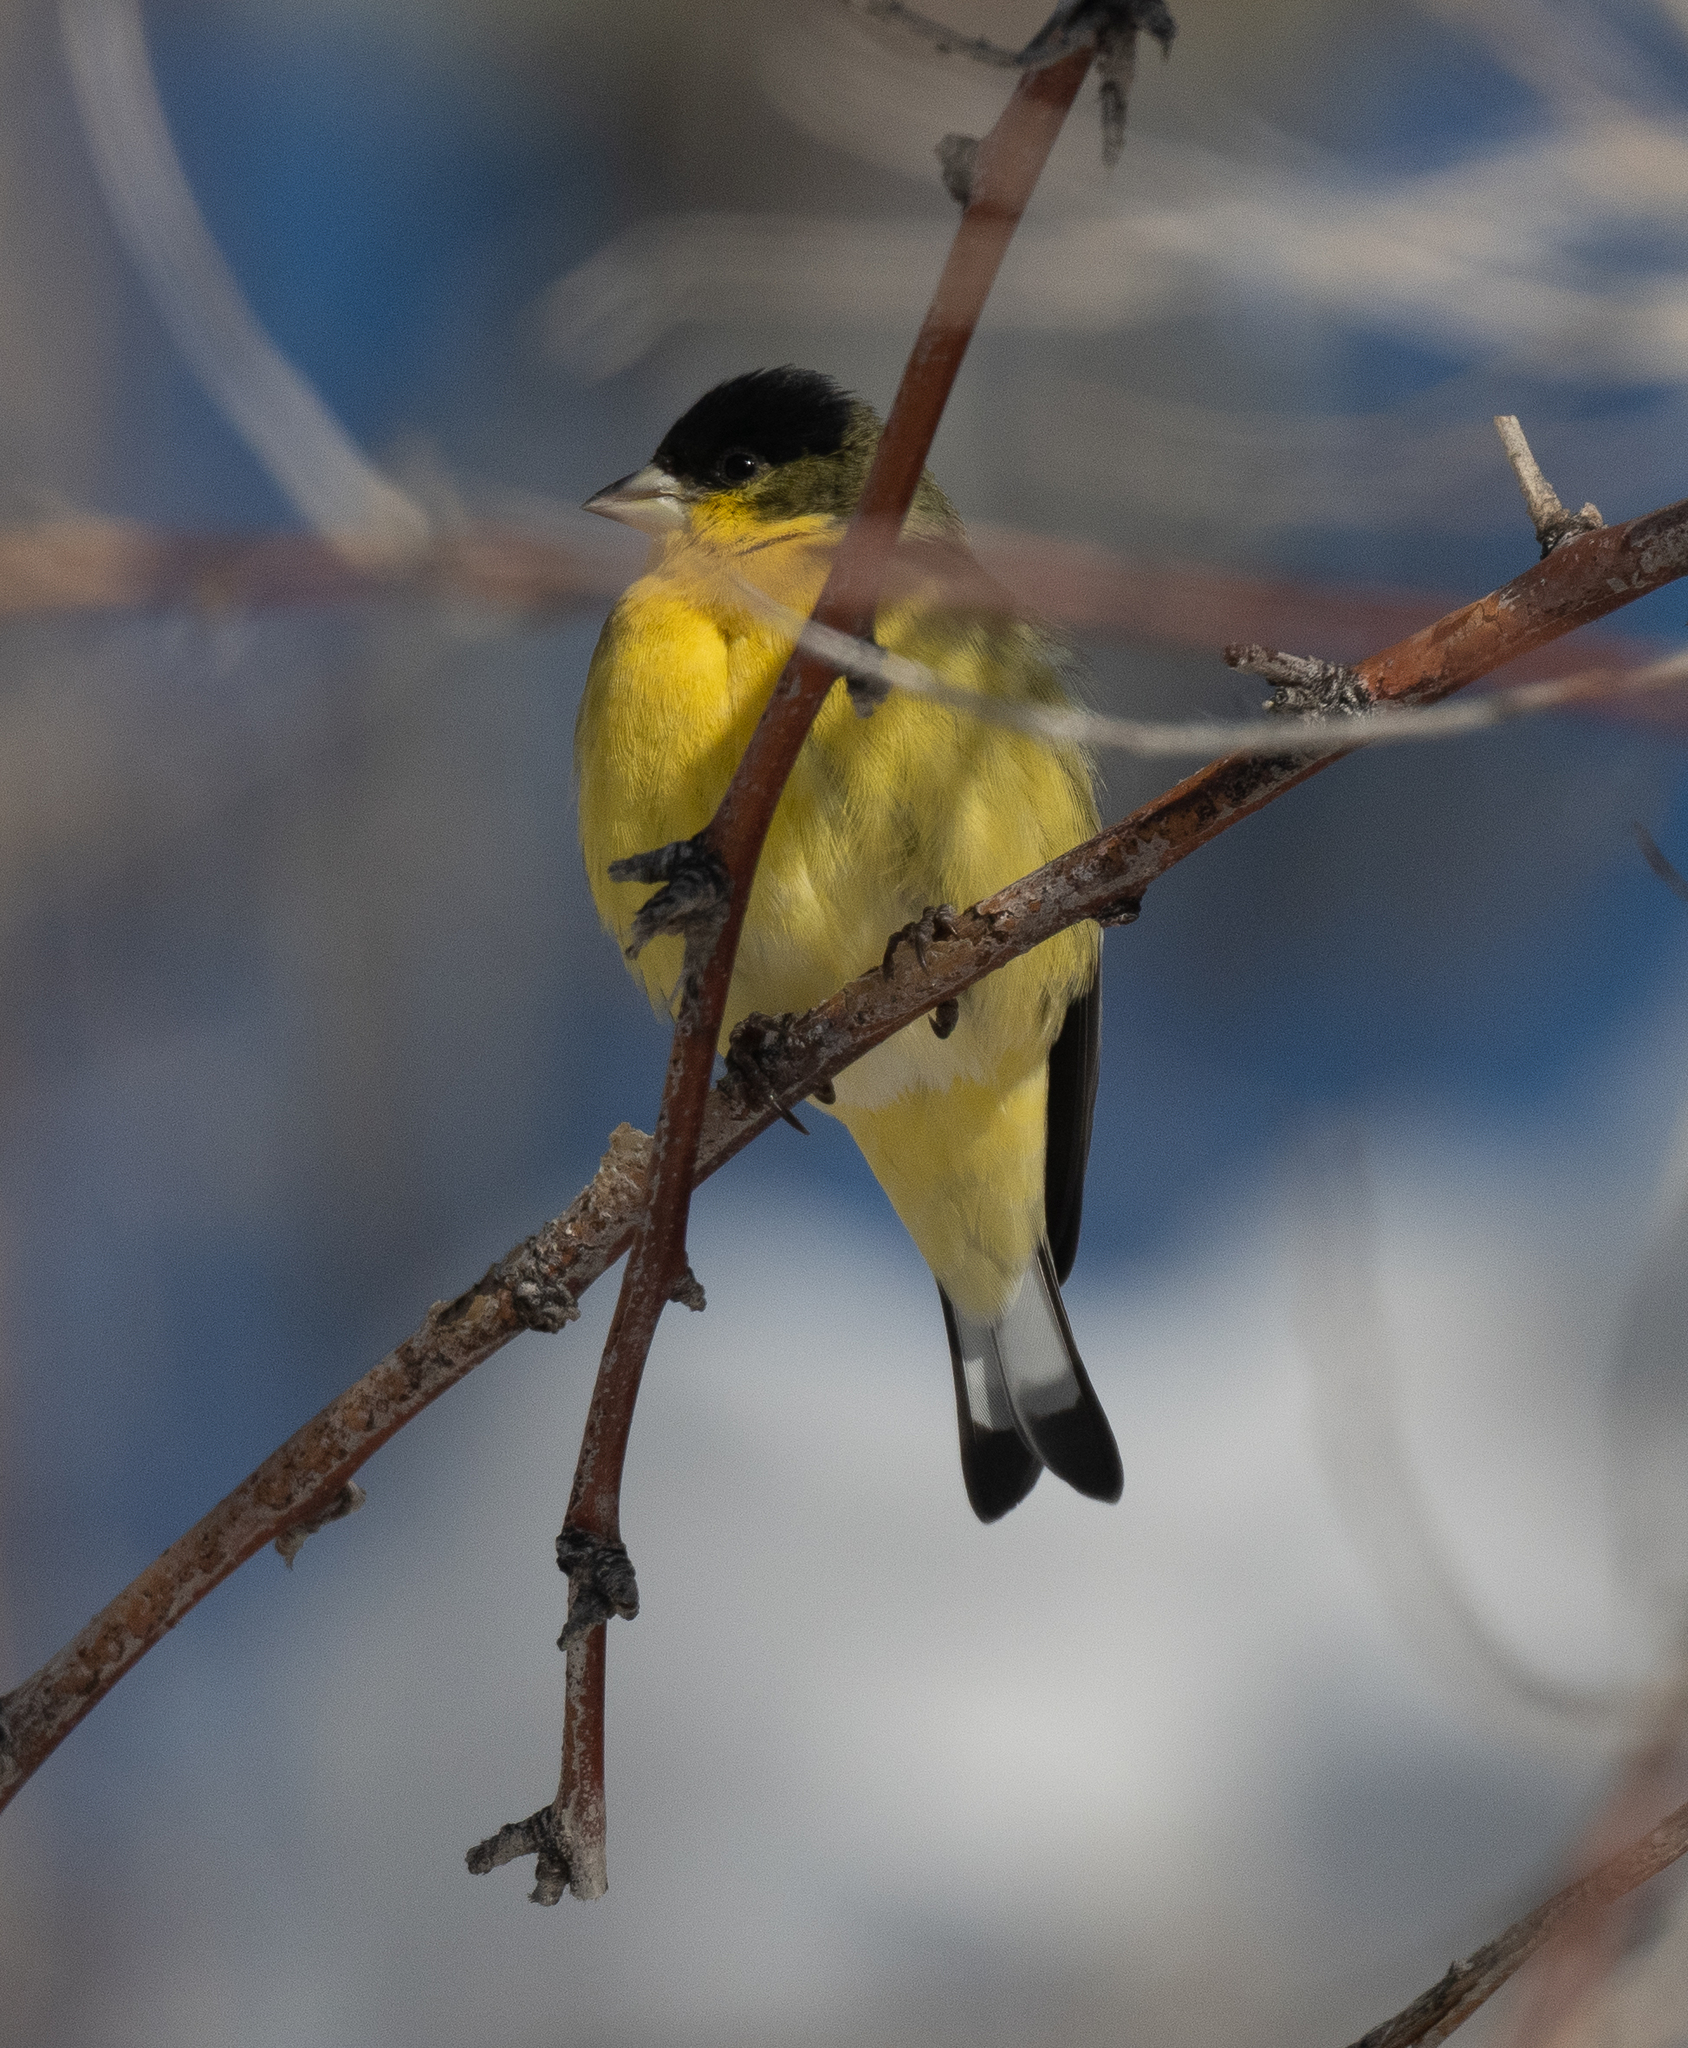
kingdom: Animalia
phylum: Chordata
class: Aves
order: Passeriformes
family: Fringillidae
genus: Spinus
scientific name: Spinus psaltria
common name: Lesser goldfinch
